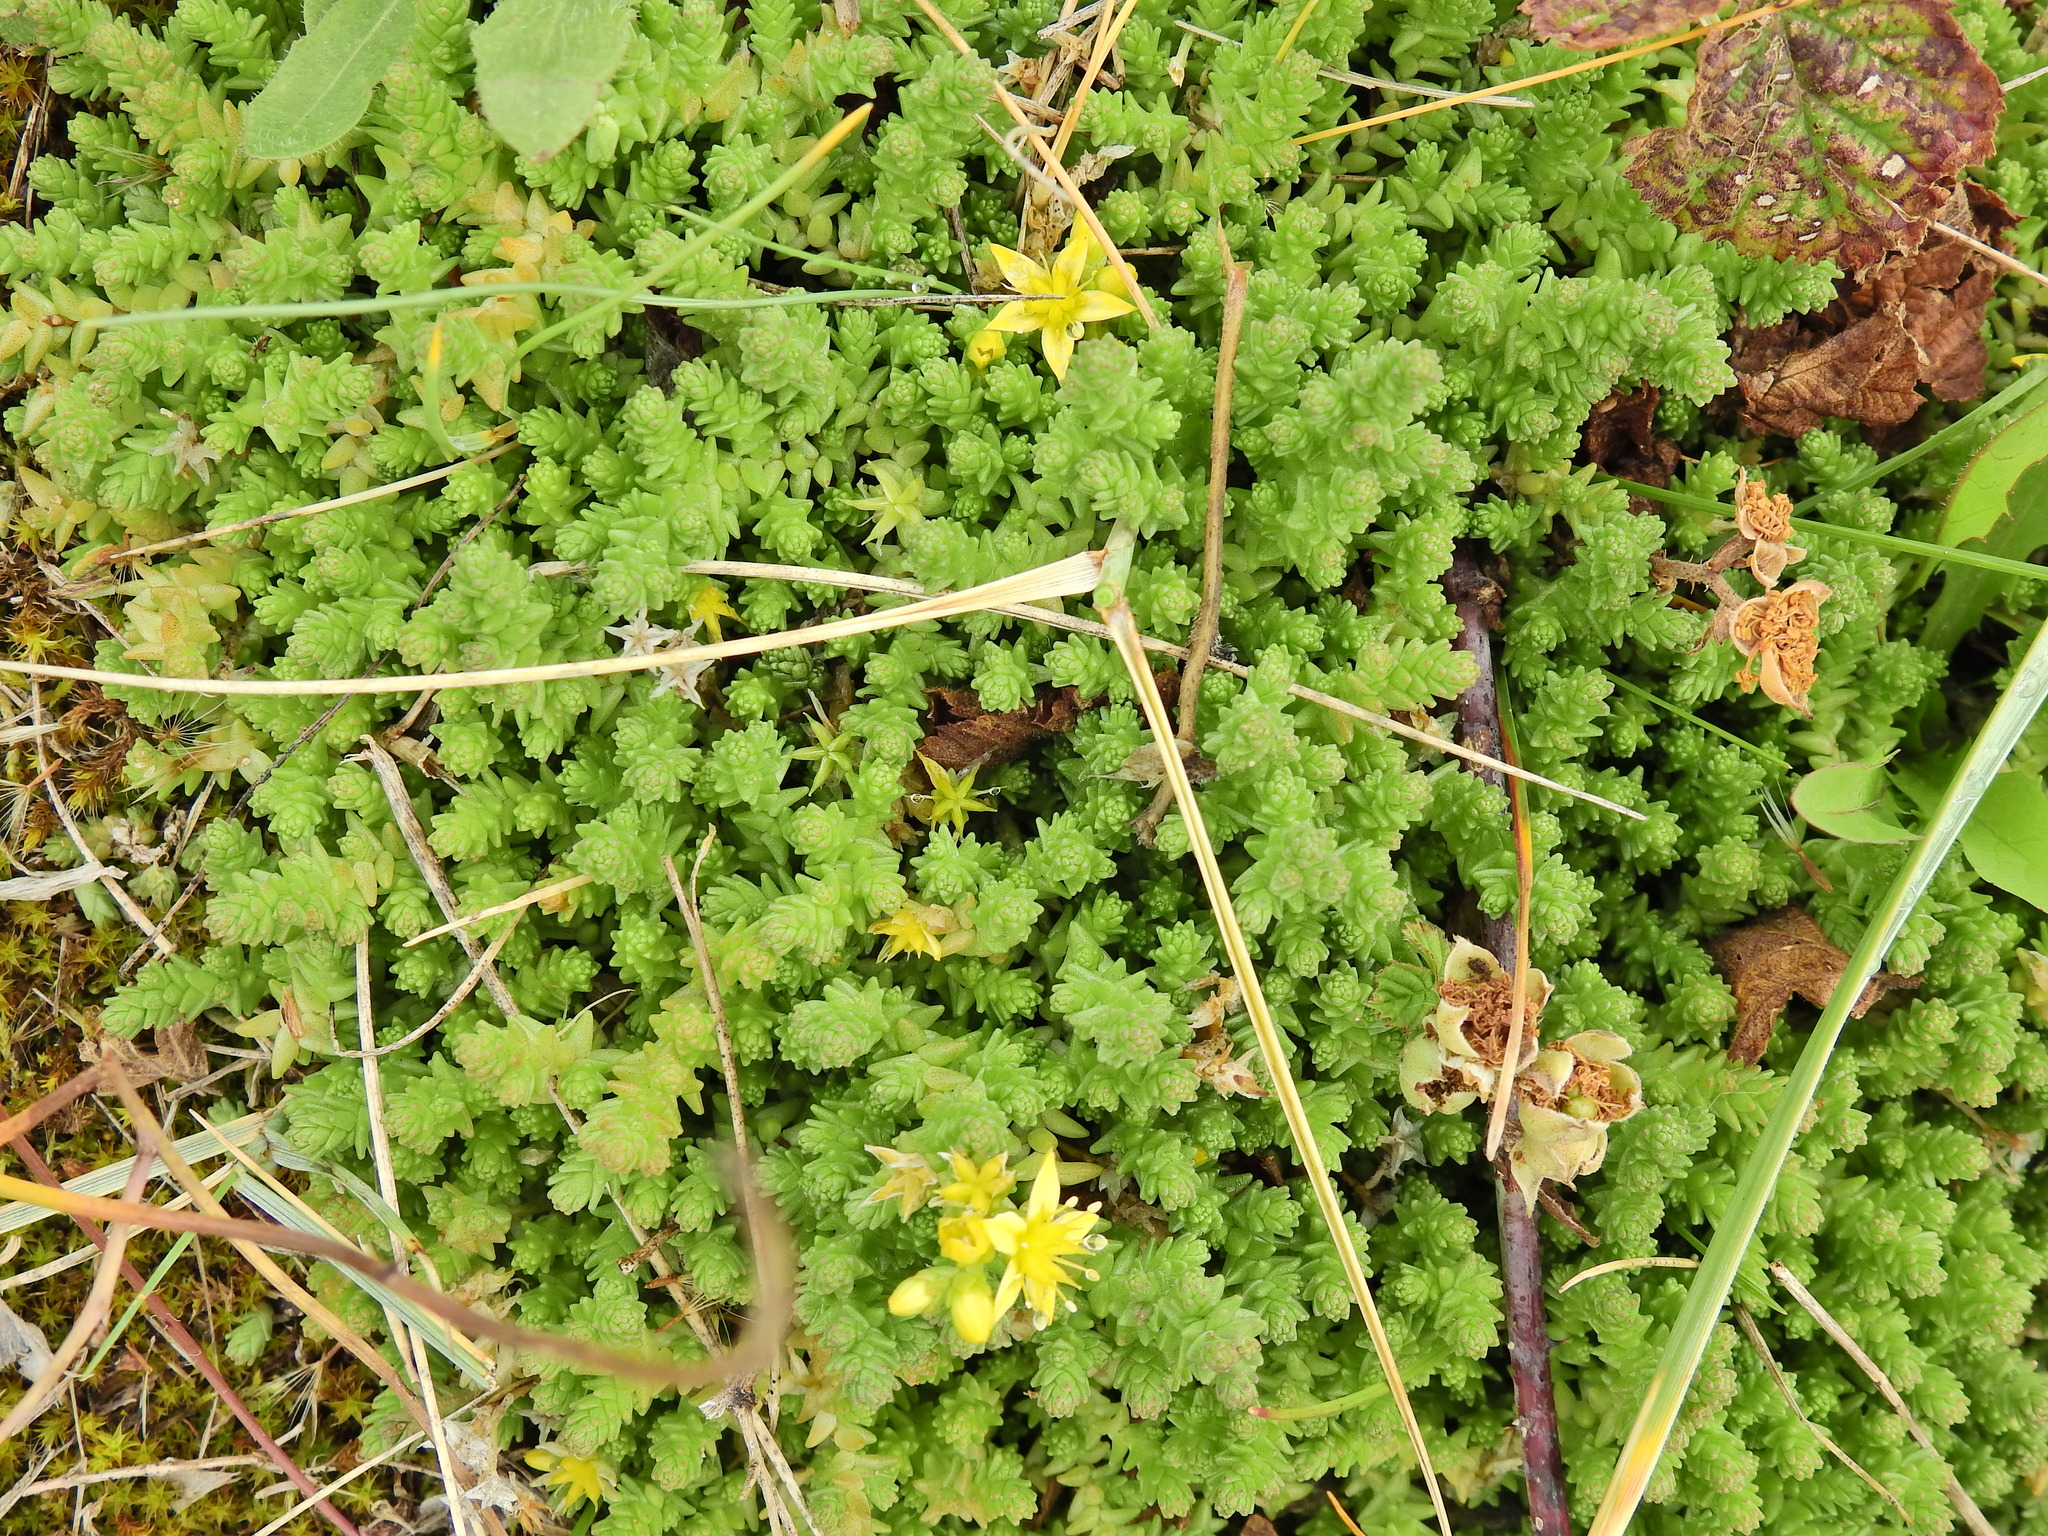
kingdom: Plantae
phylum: Tracheophyta
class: Magnoliopsida
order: Saxifragales
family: Crassulaceae
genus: Sedum
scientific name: Sedum acre
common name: Biting stonecrop
